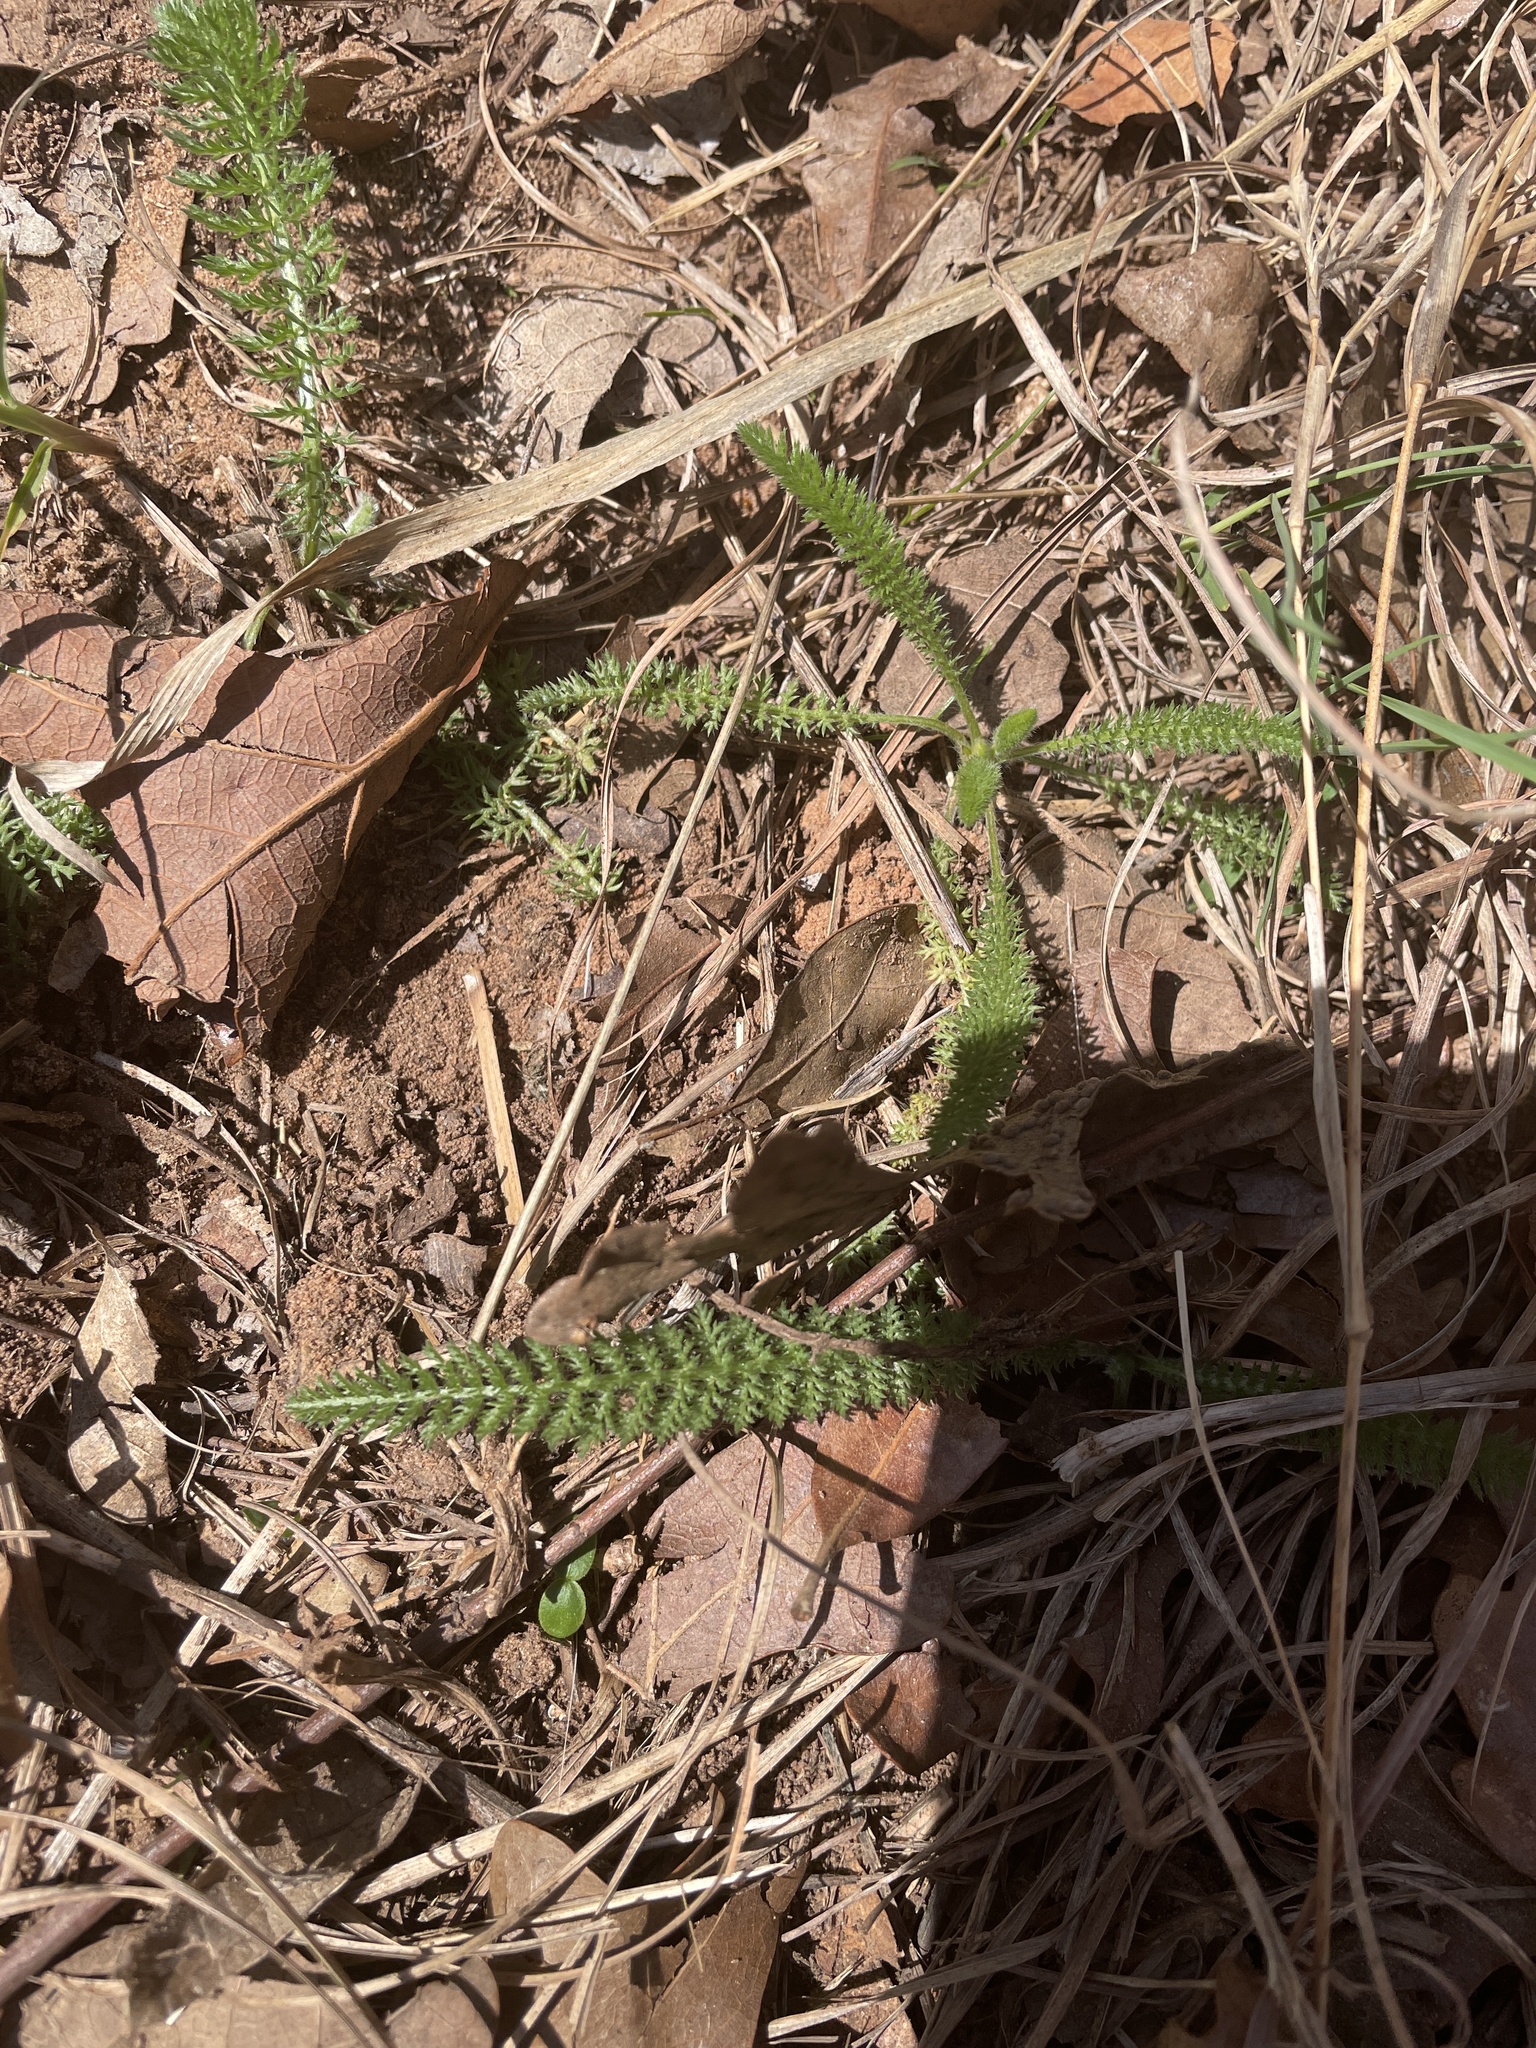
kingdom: Plantae
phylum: Tracheophyta
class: Magnoliopsida
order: Asterales
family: Asteraceae
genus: Achillea
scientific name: Achillea millefolium
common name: Yarrow
